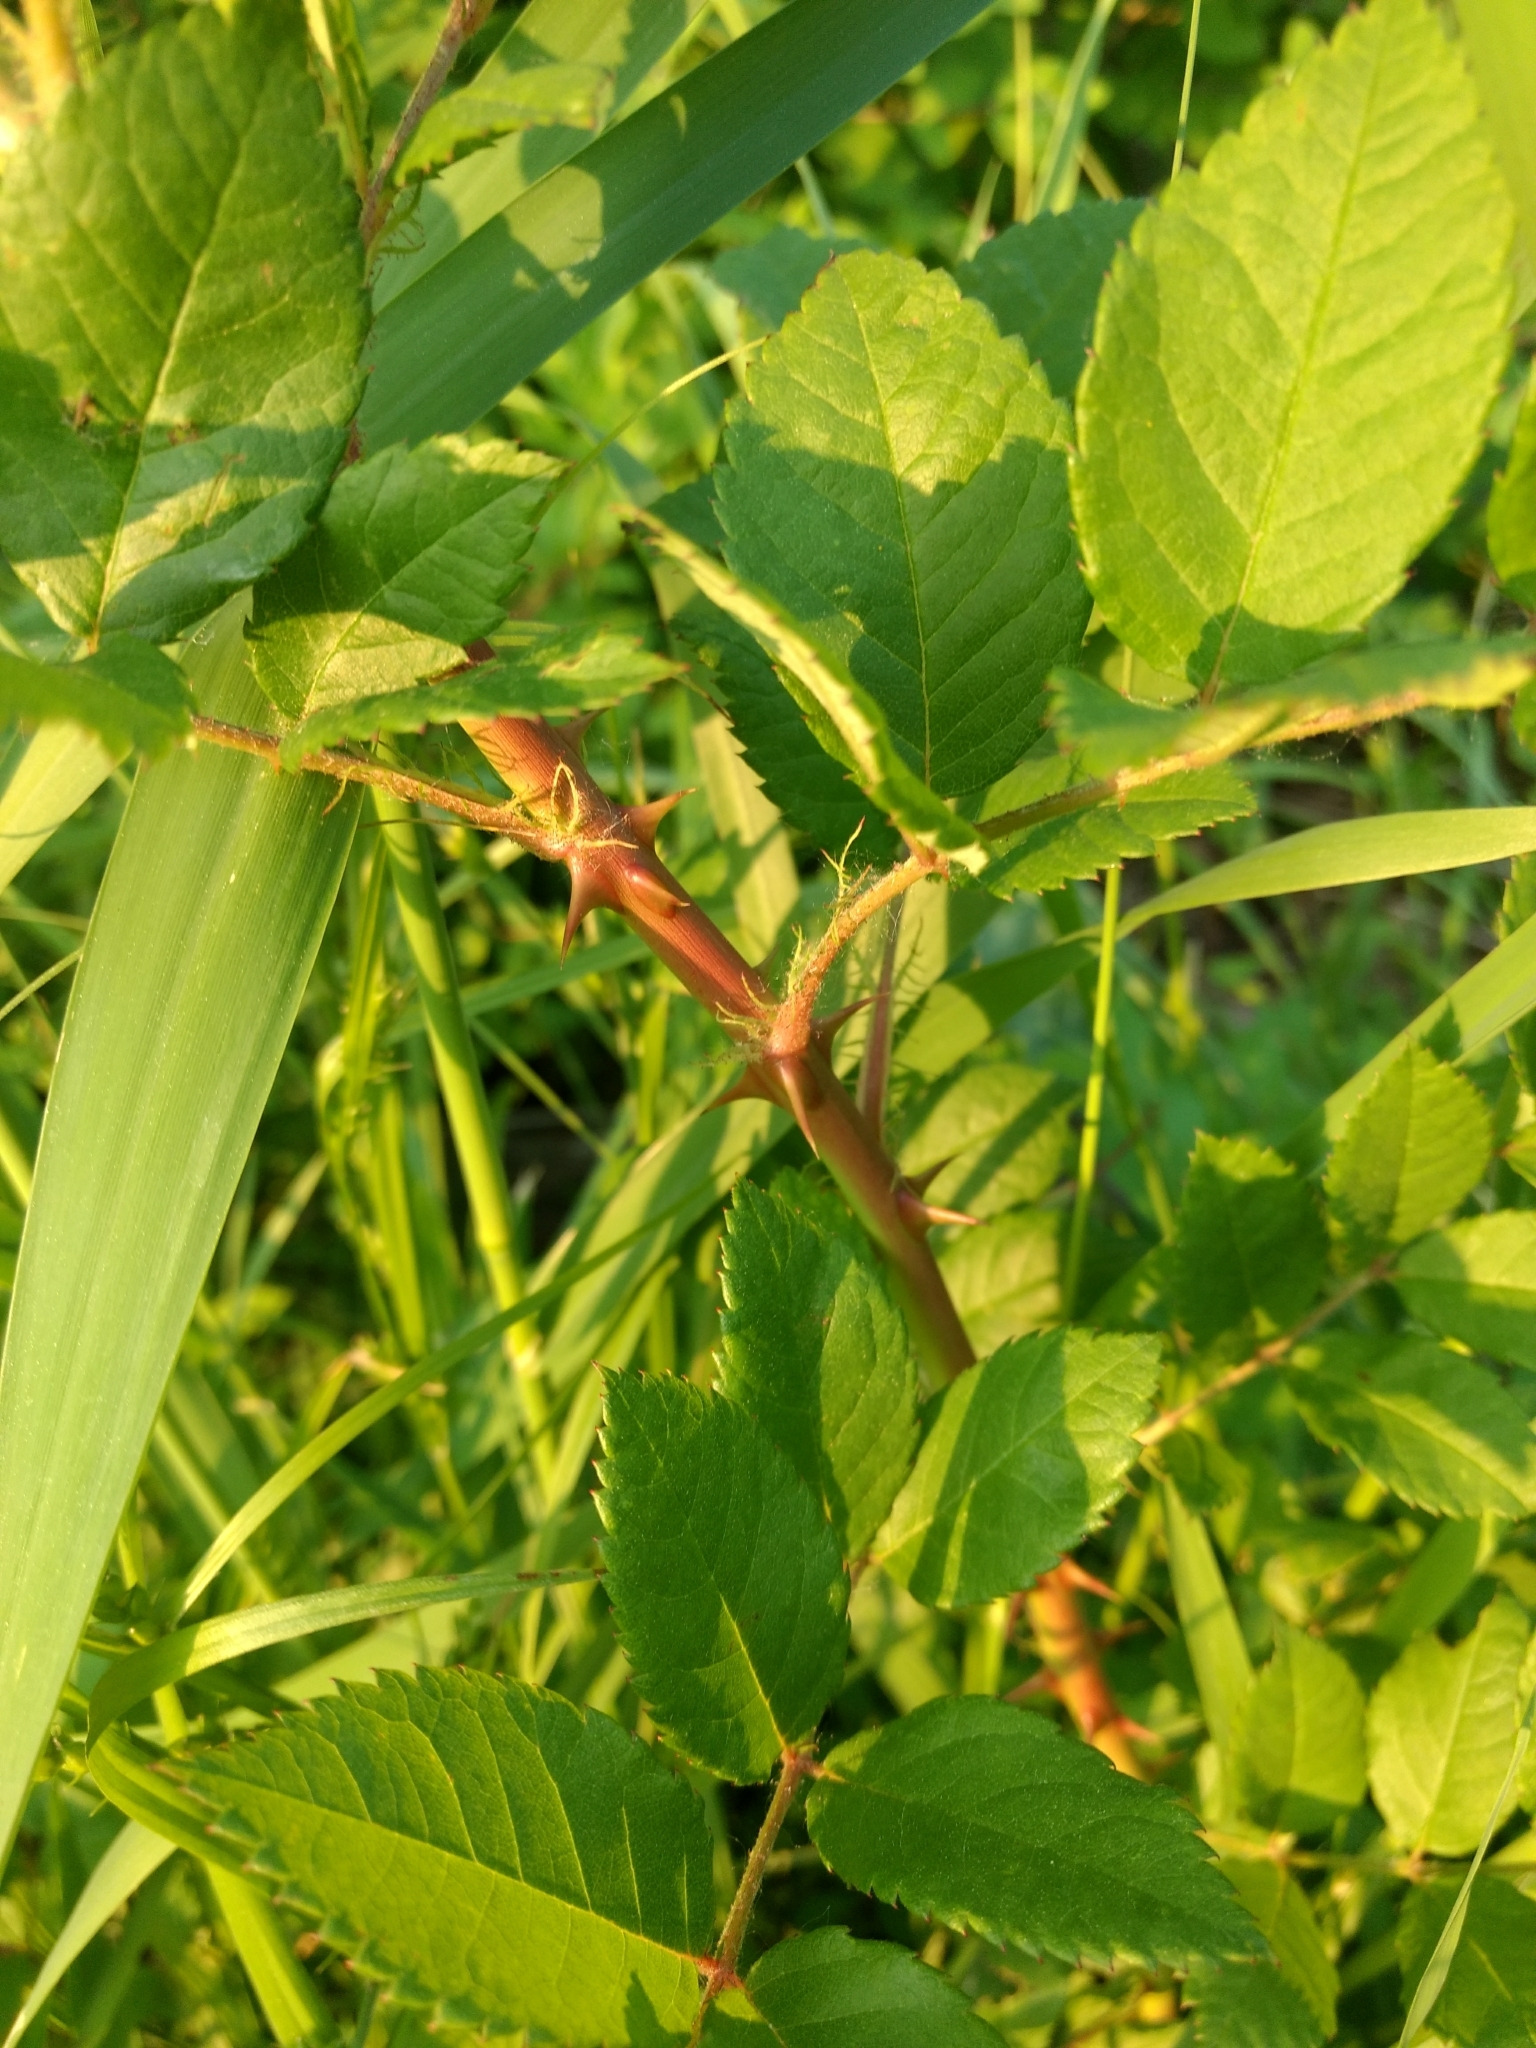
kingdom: Plantae
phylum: Tracheophyta
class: Magnoliopsida
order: Rosales
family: Rosaceae
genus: Rosa
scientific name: Rosa multiflora
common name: Multiflora rose
